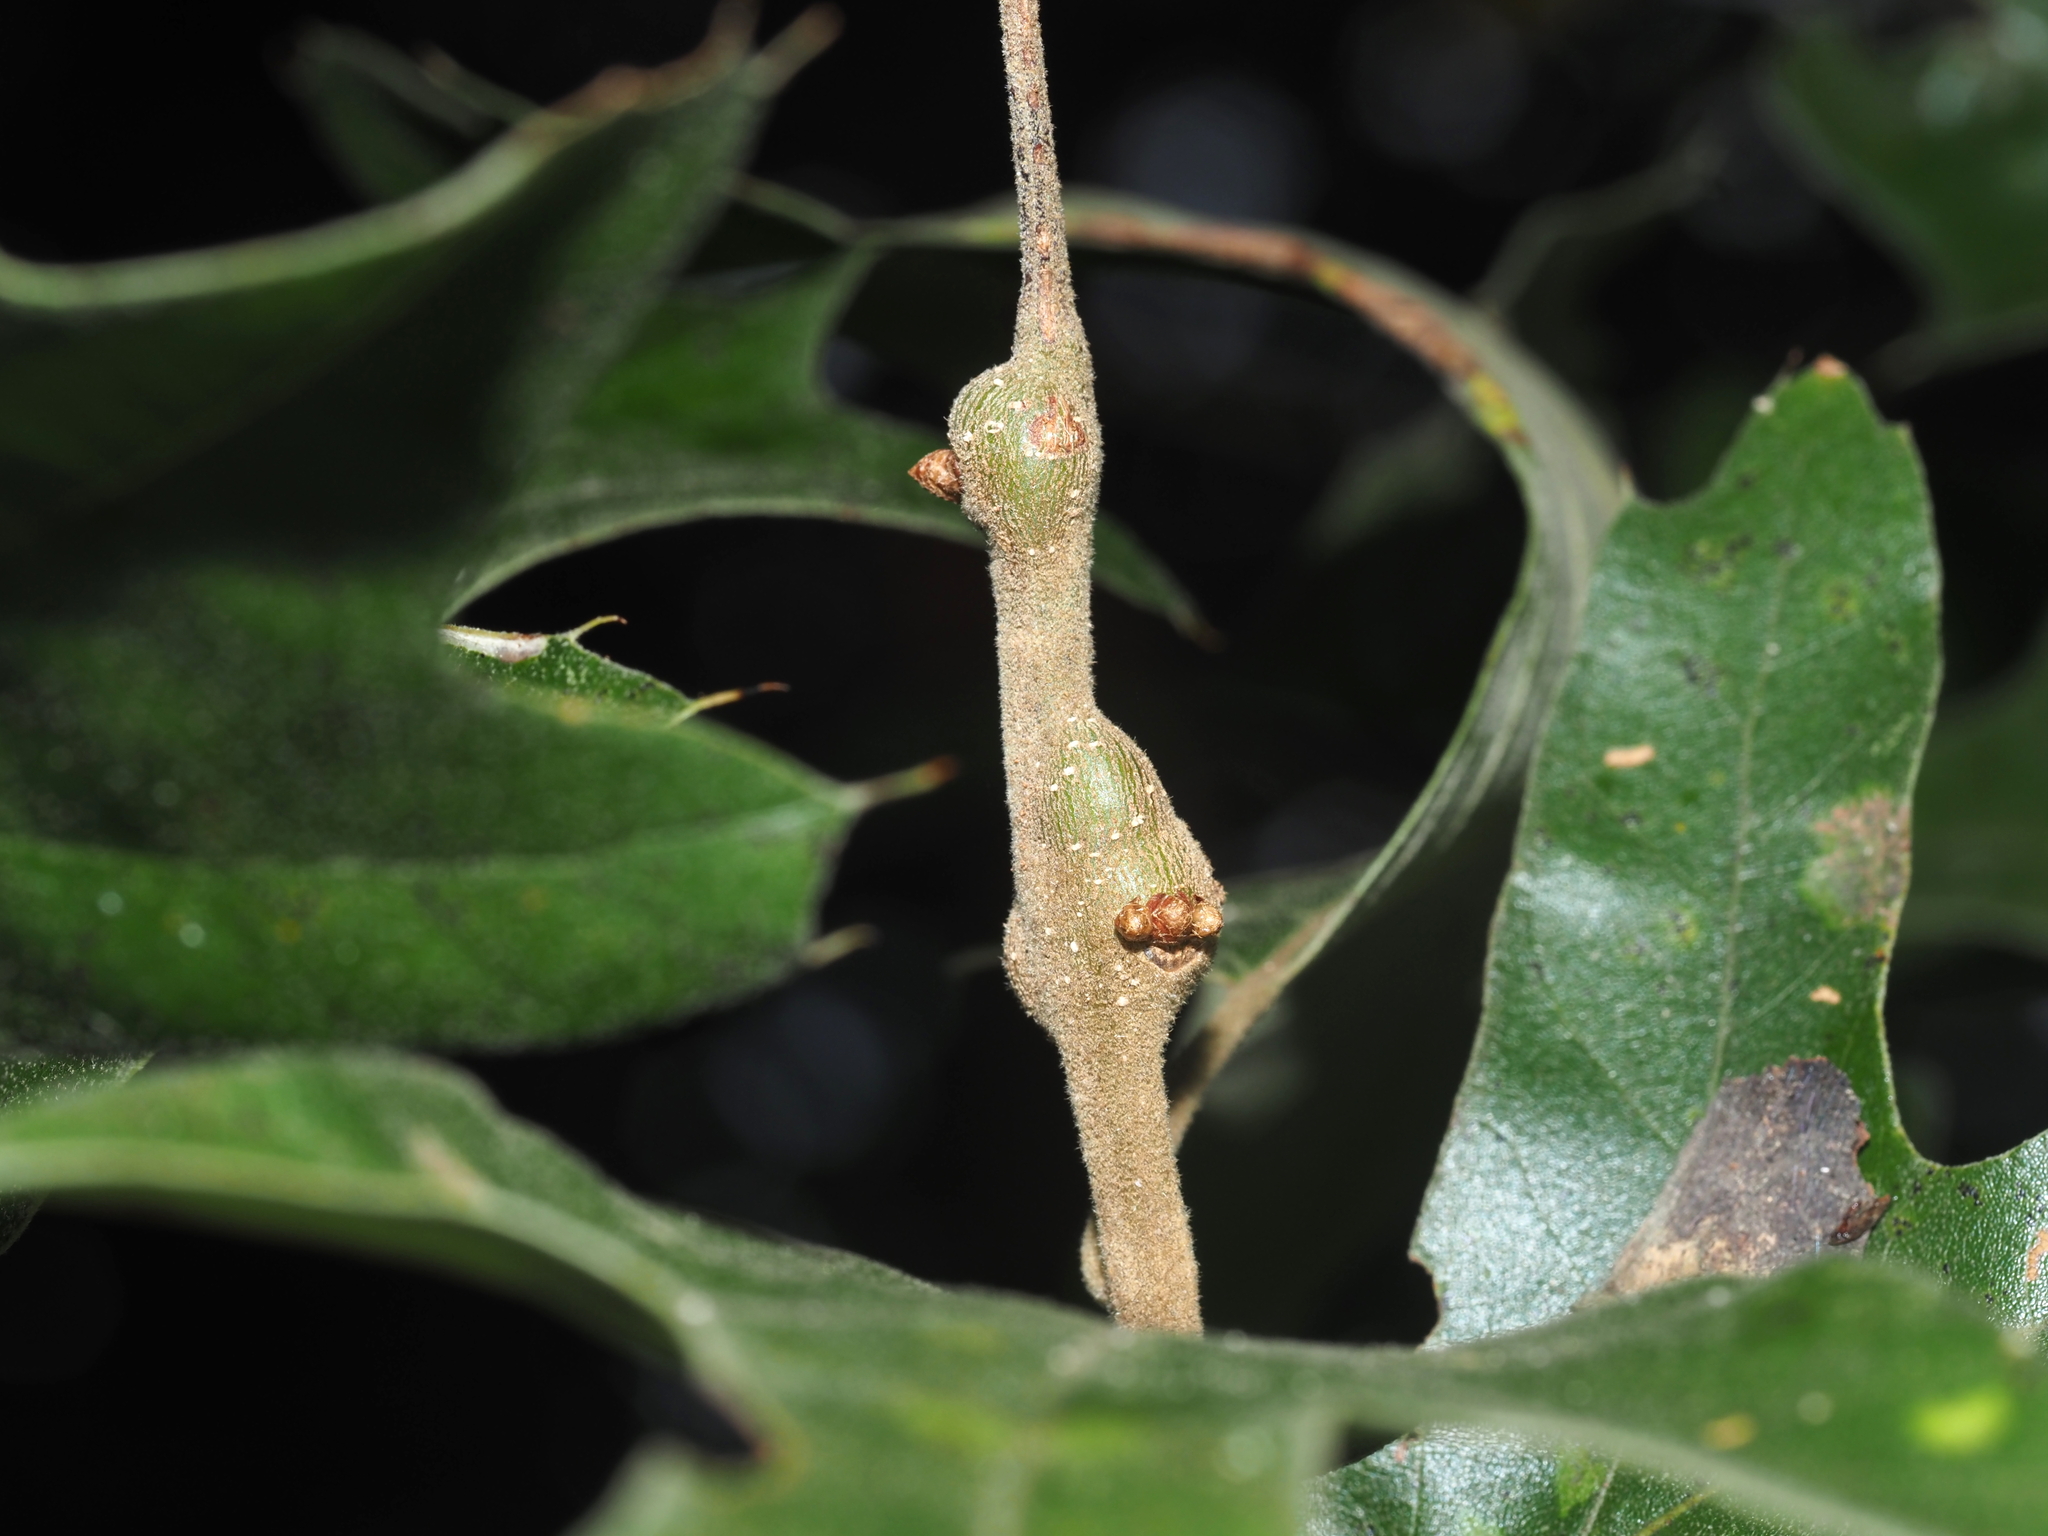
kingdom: Animalia
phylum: Arthropoda
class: Insecta
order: Hymenoptera
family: Cynipidae
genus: Zapatella
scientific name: Zapatella quercusmedullae
